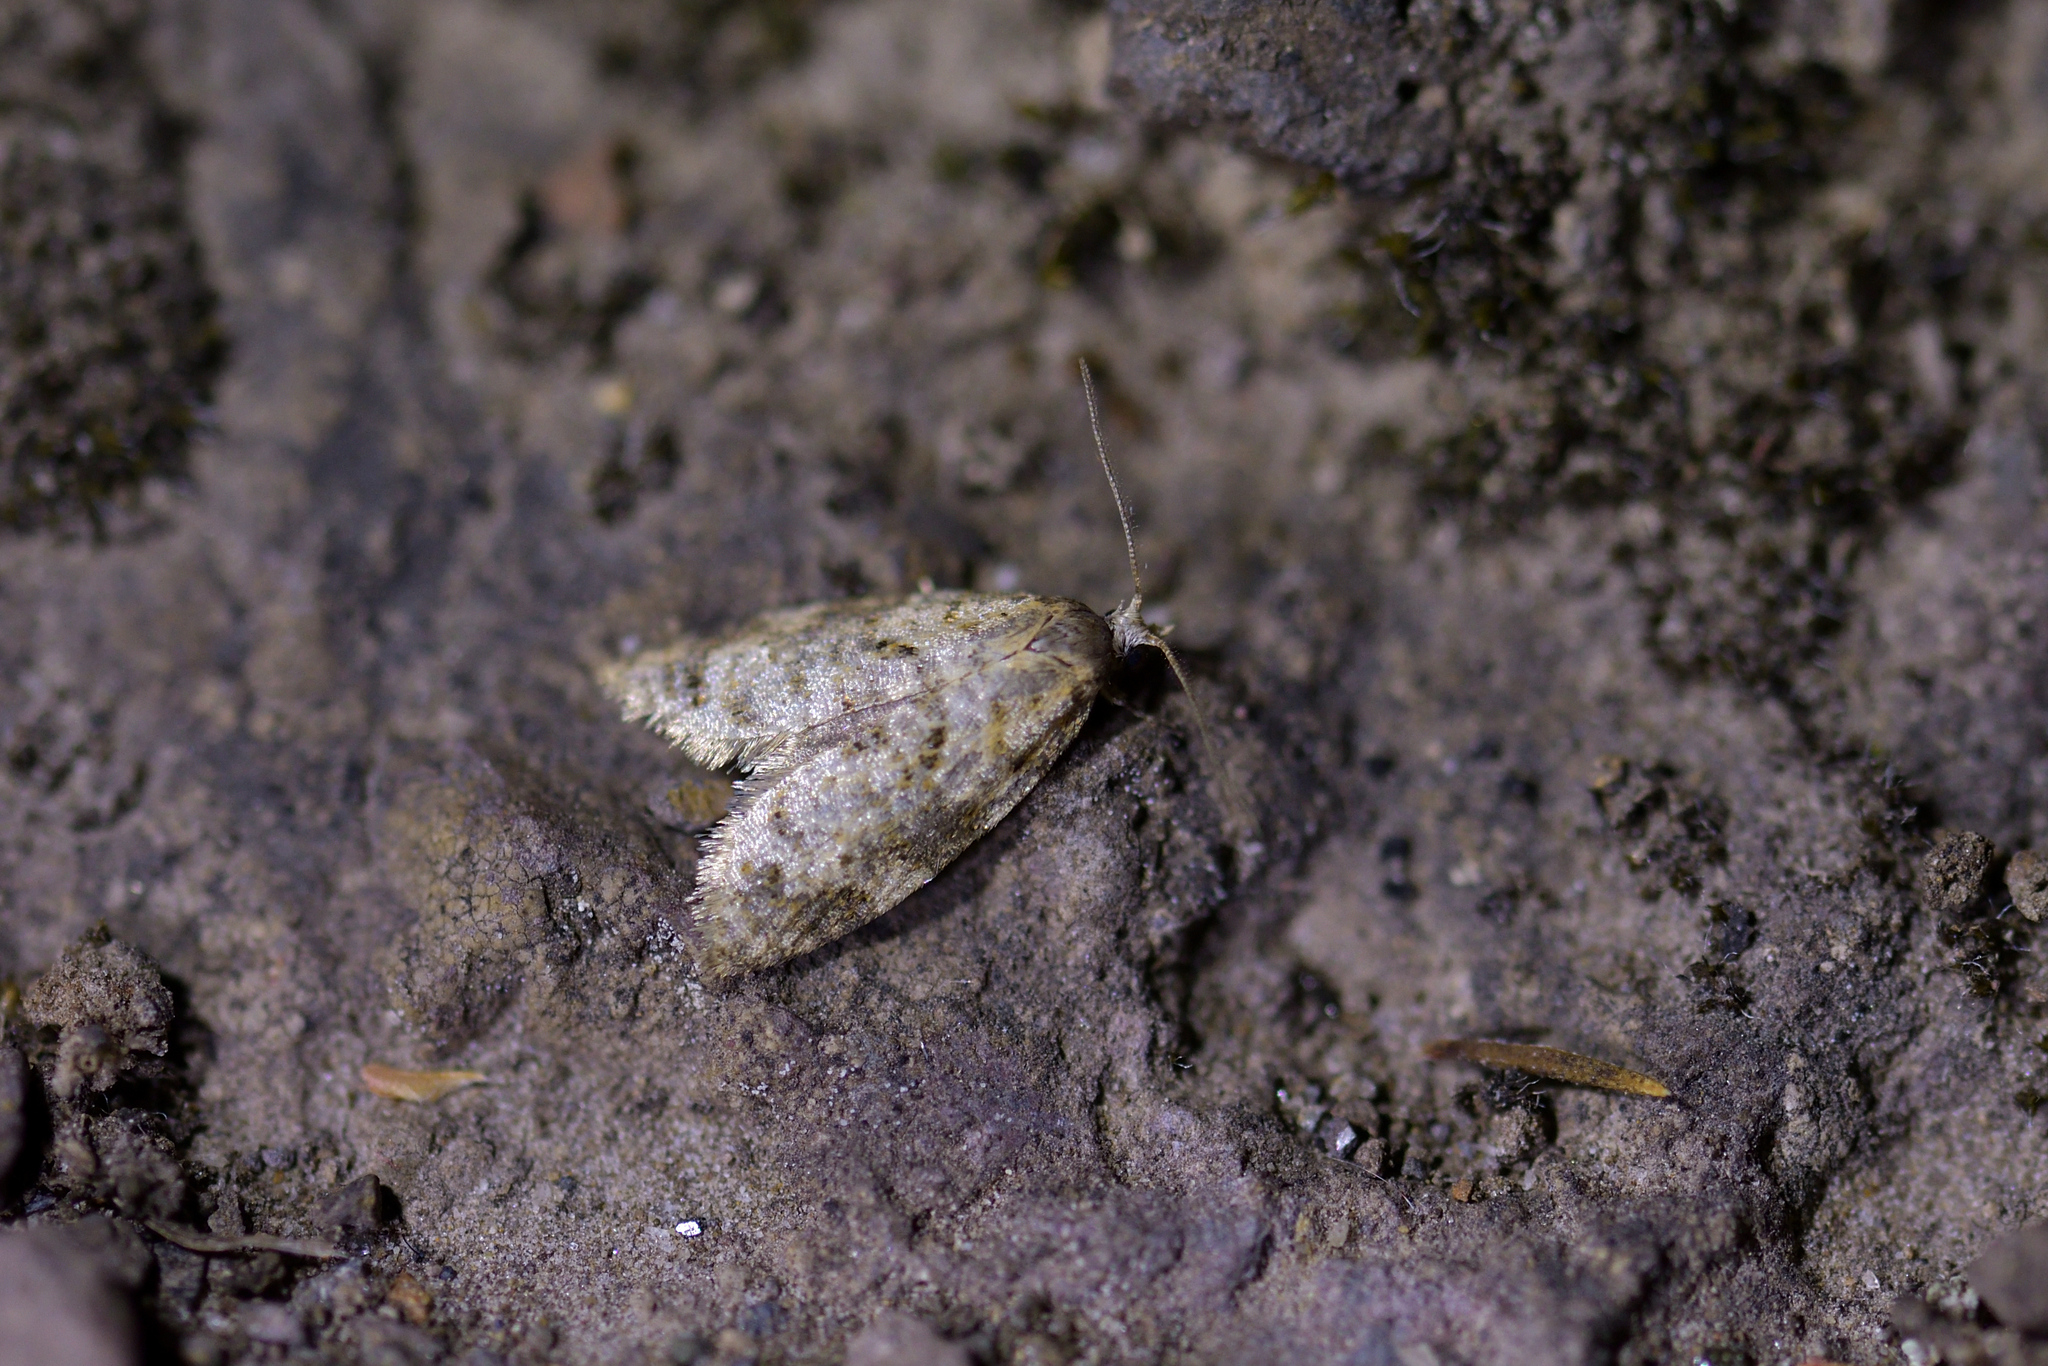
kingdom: Animalia
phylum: Arthropoda
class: Insecta
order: Lepidoptera
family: Tortricidae
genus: Dipterina
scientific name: Dipterina imbriferana
